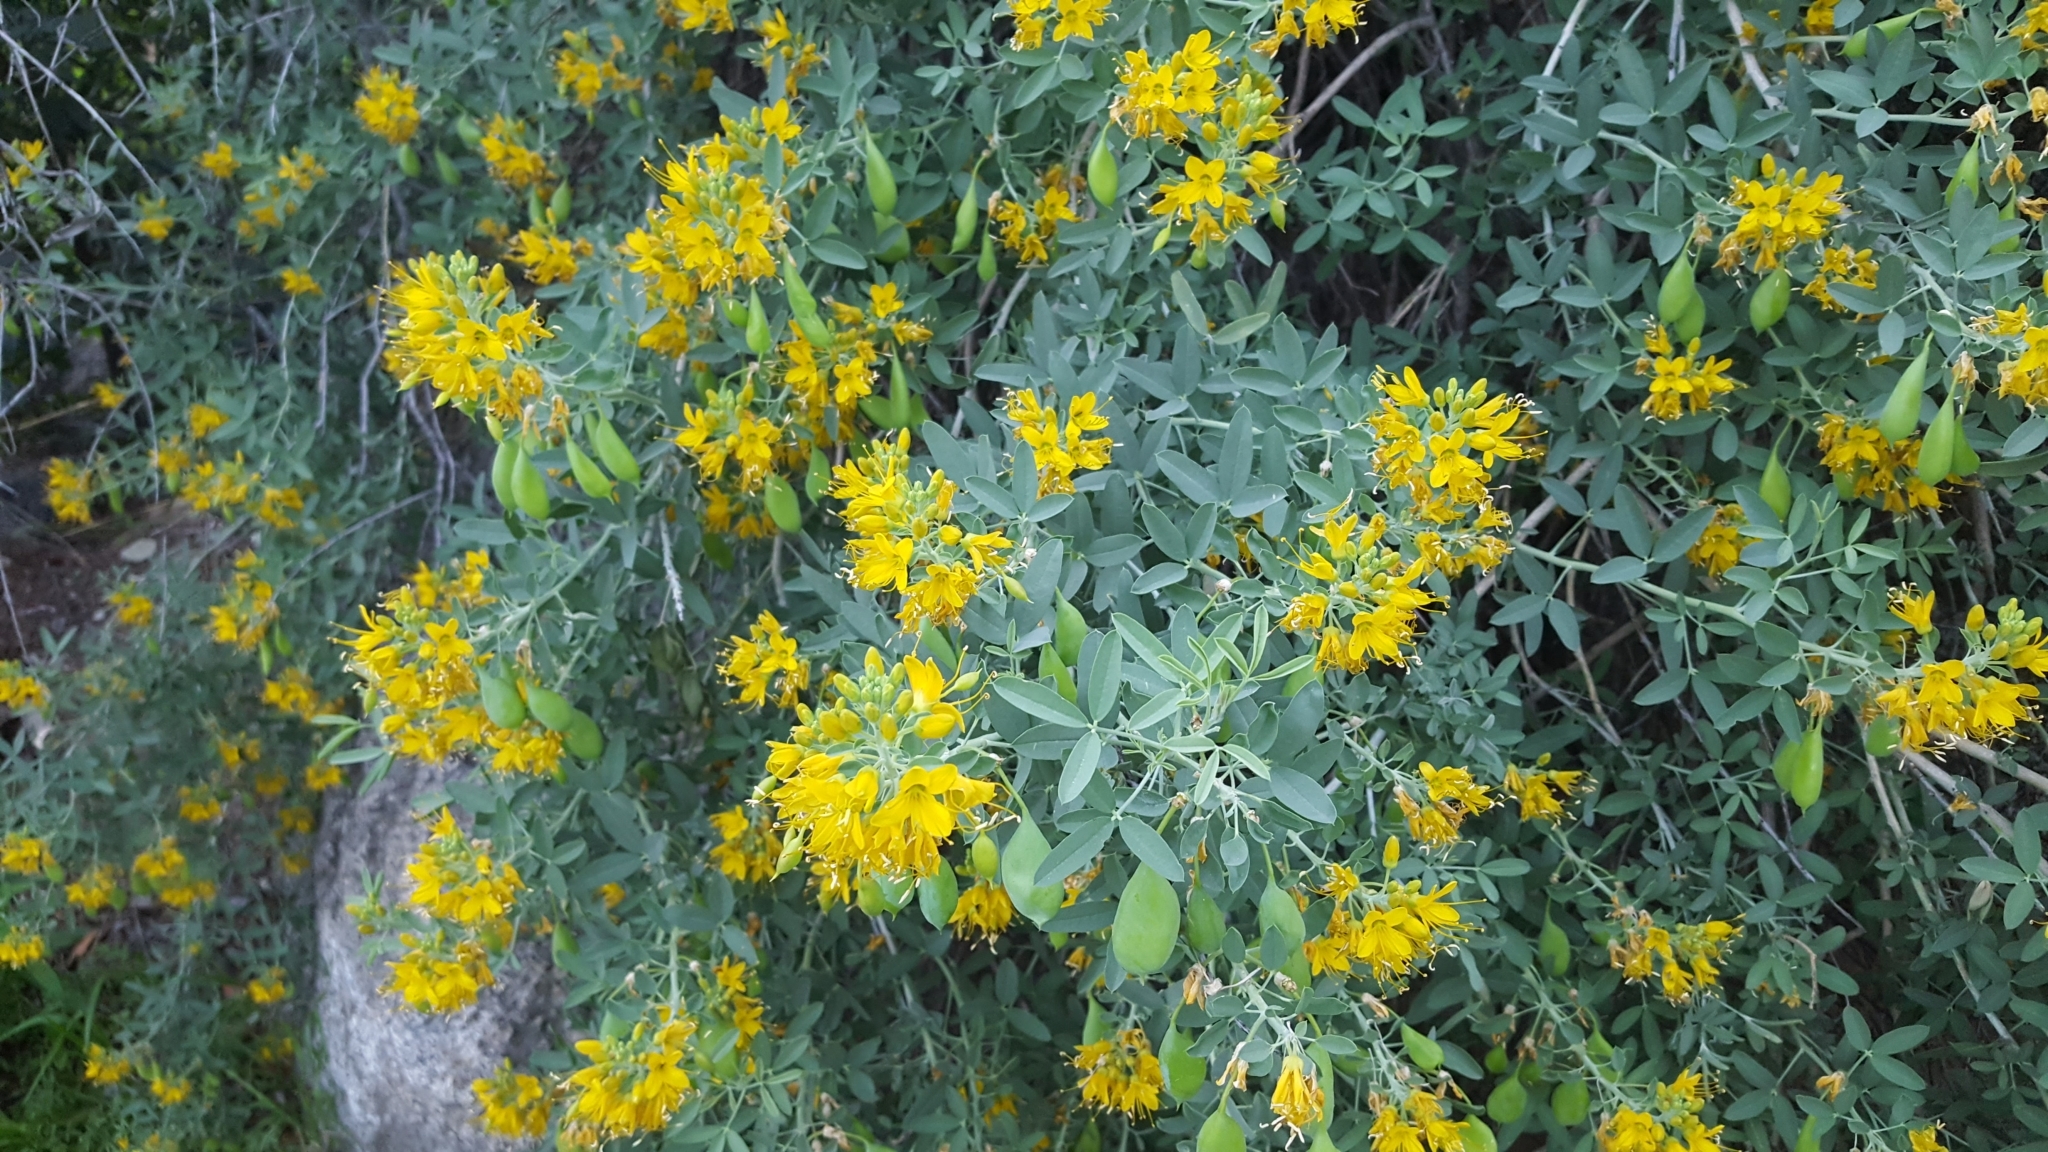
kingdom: Plantae
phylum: Tracheophyta
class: Magnoliopsida
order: Brassicales
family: Cleomaceae
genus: Cleomella
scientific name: Cleomella arborea
